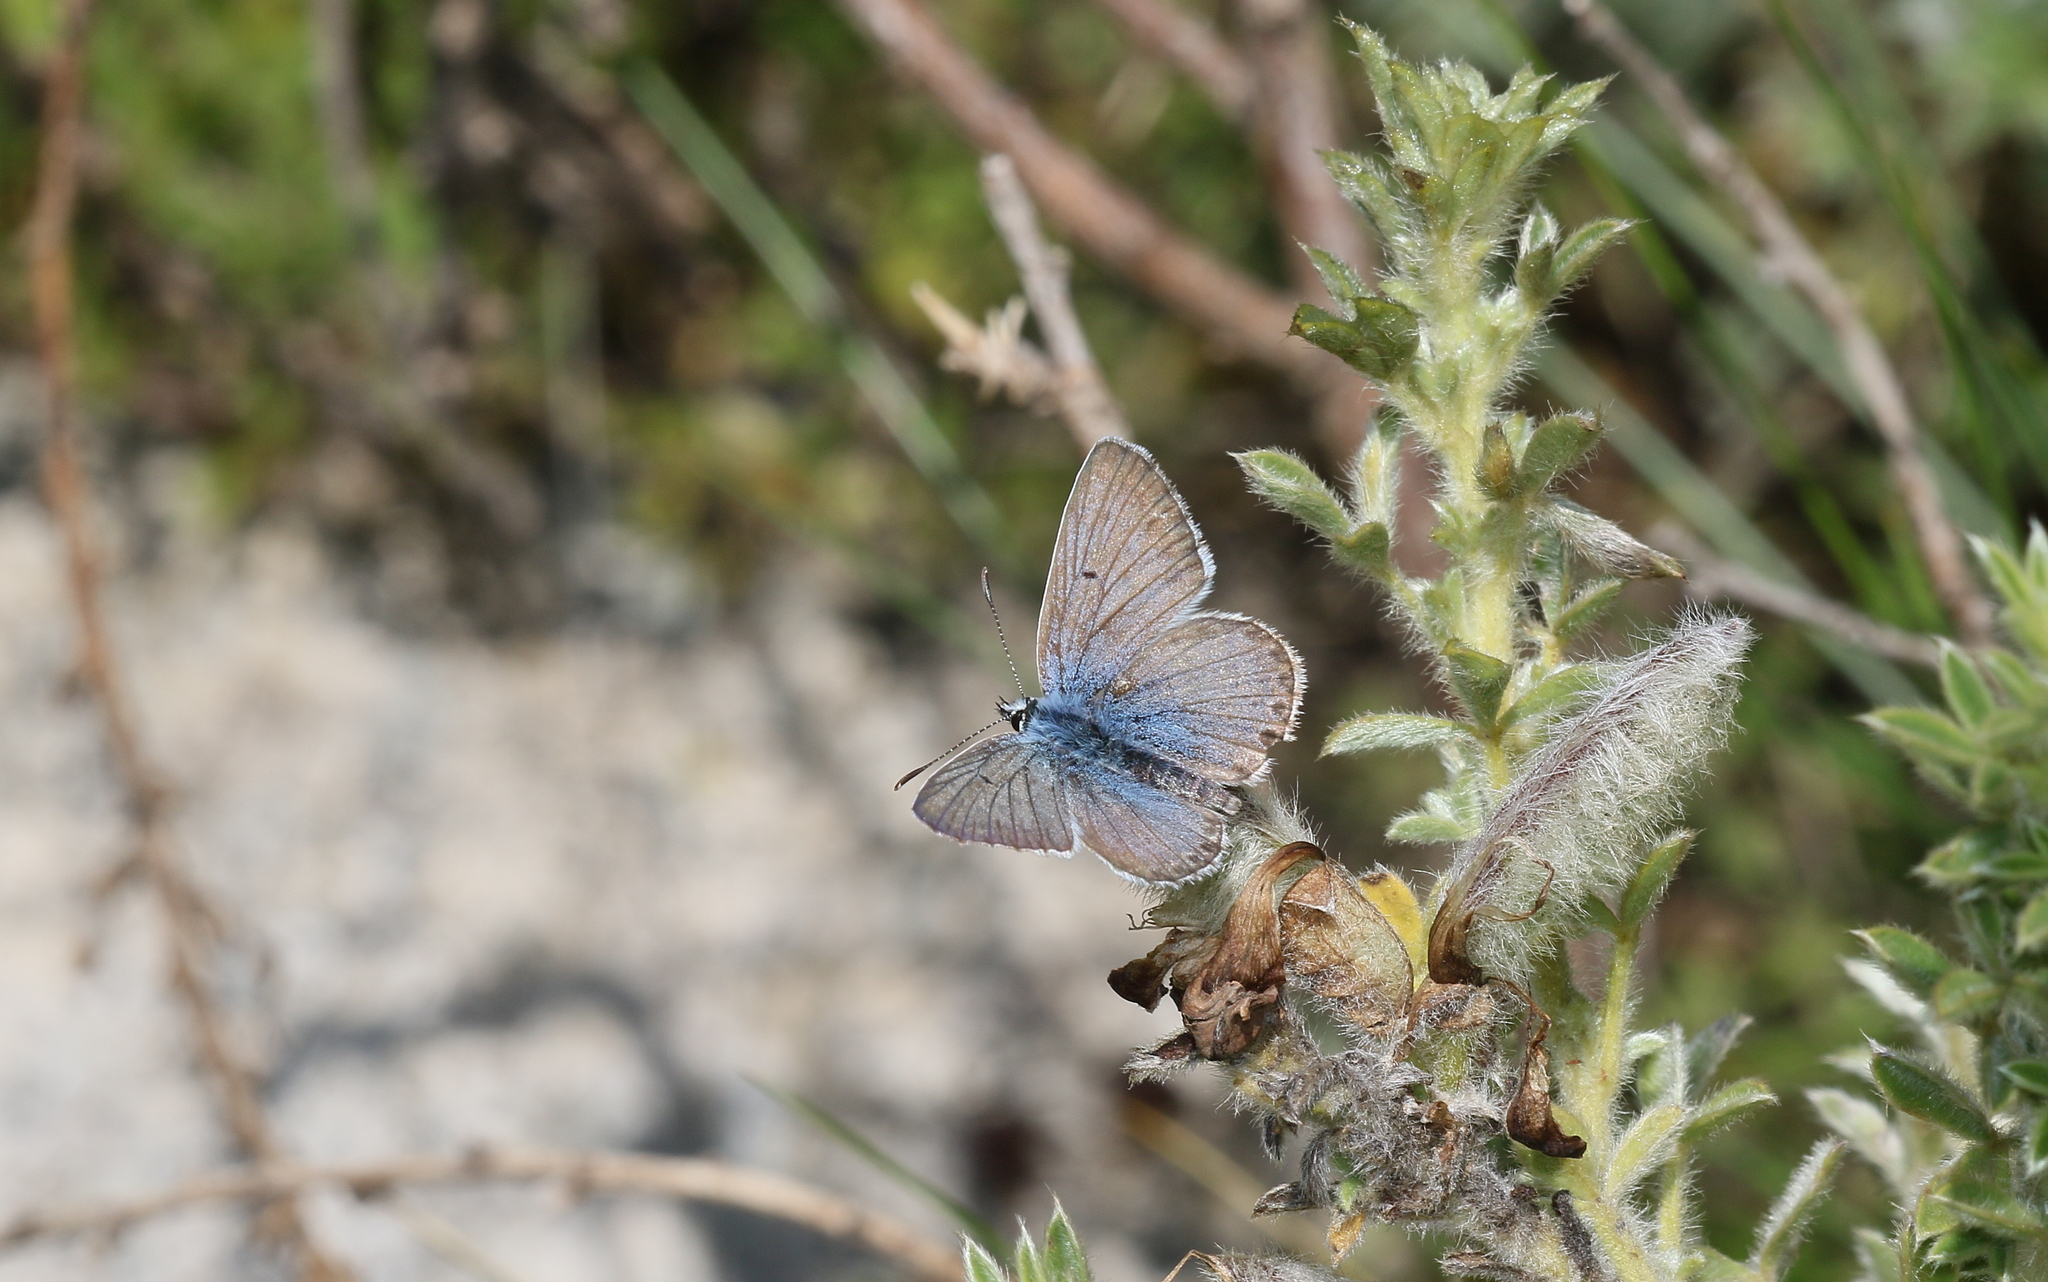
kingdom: Animalia
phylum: Arthropoda
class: Insecta
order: Lepidoptera
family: Lycaenidae
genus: Polyommatus
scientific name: Polyommatus eros
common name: Eros blue
